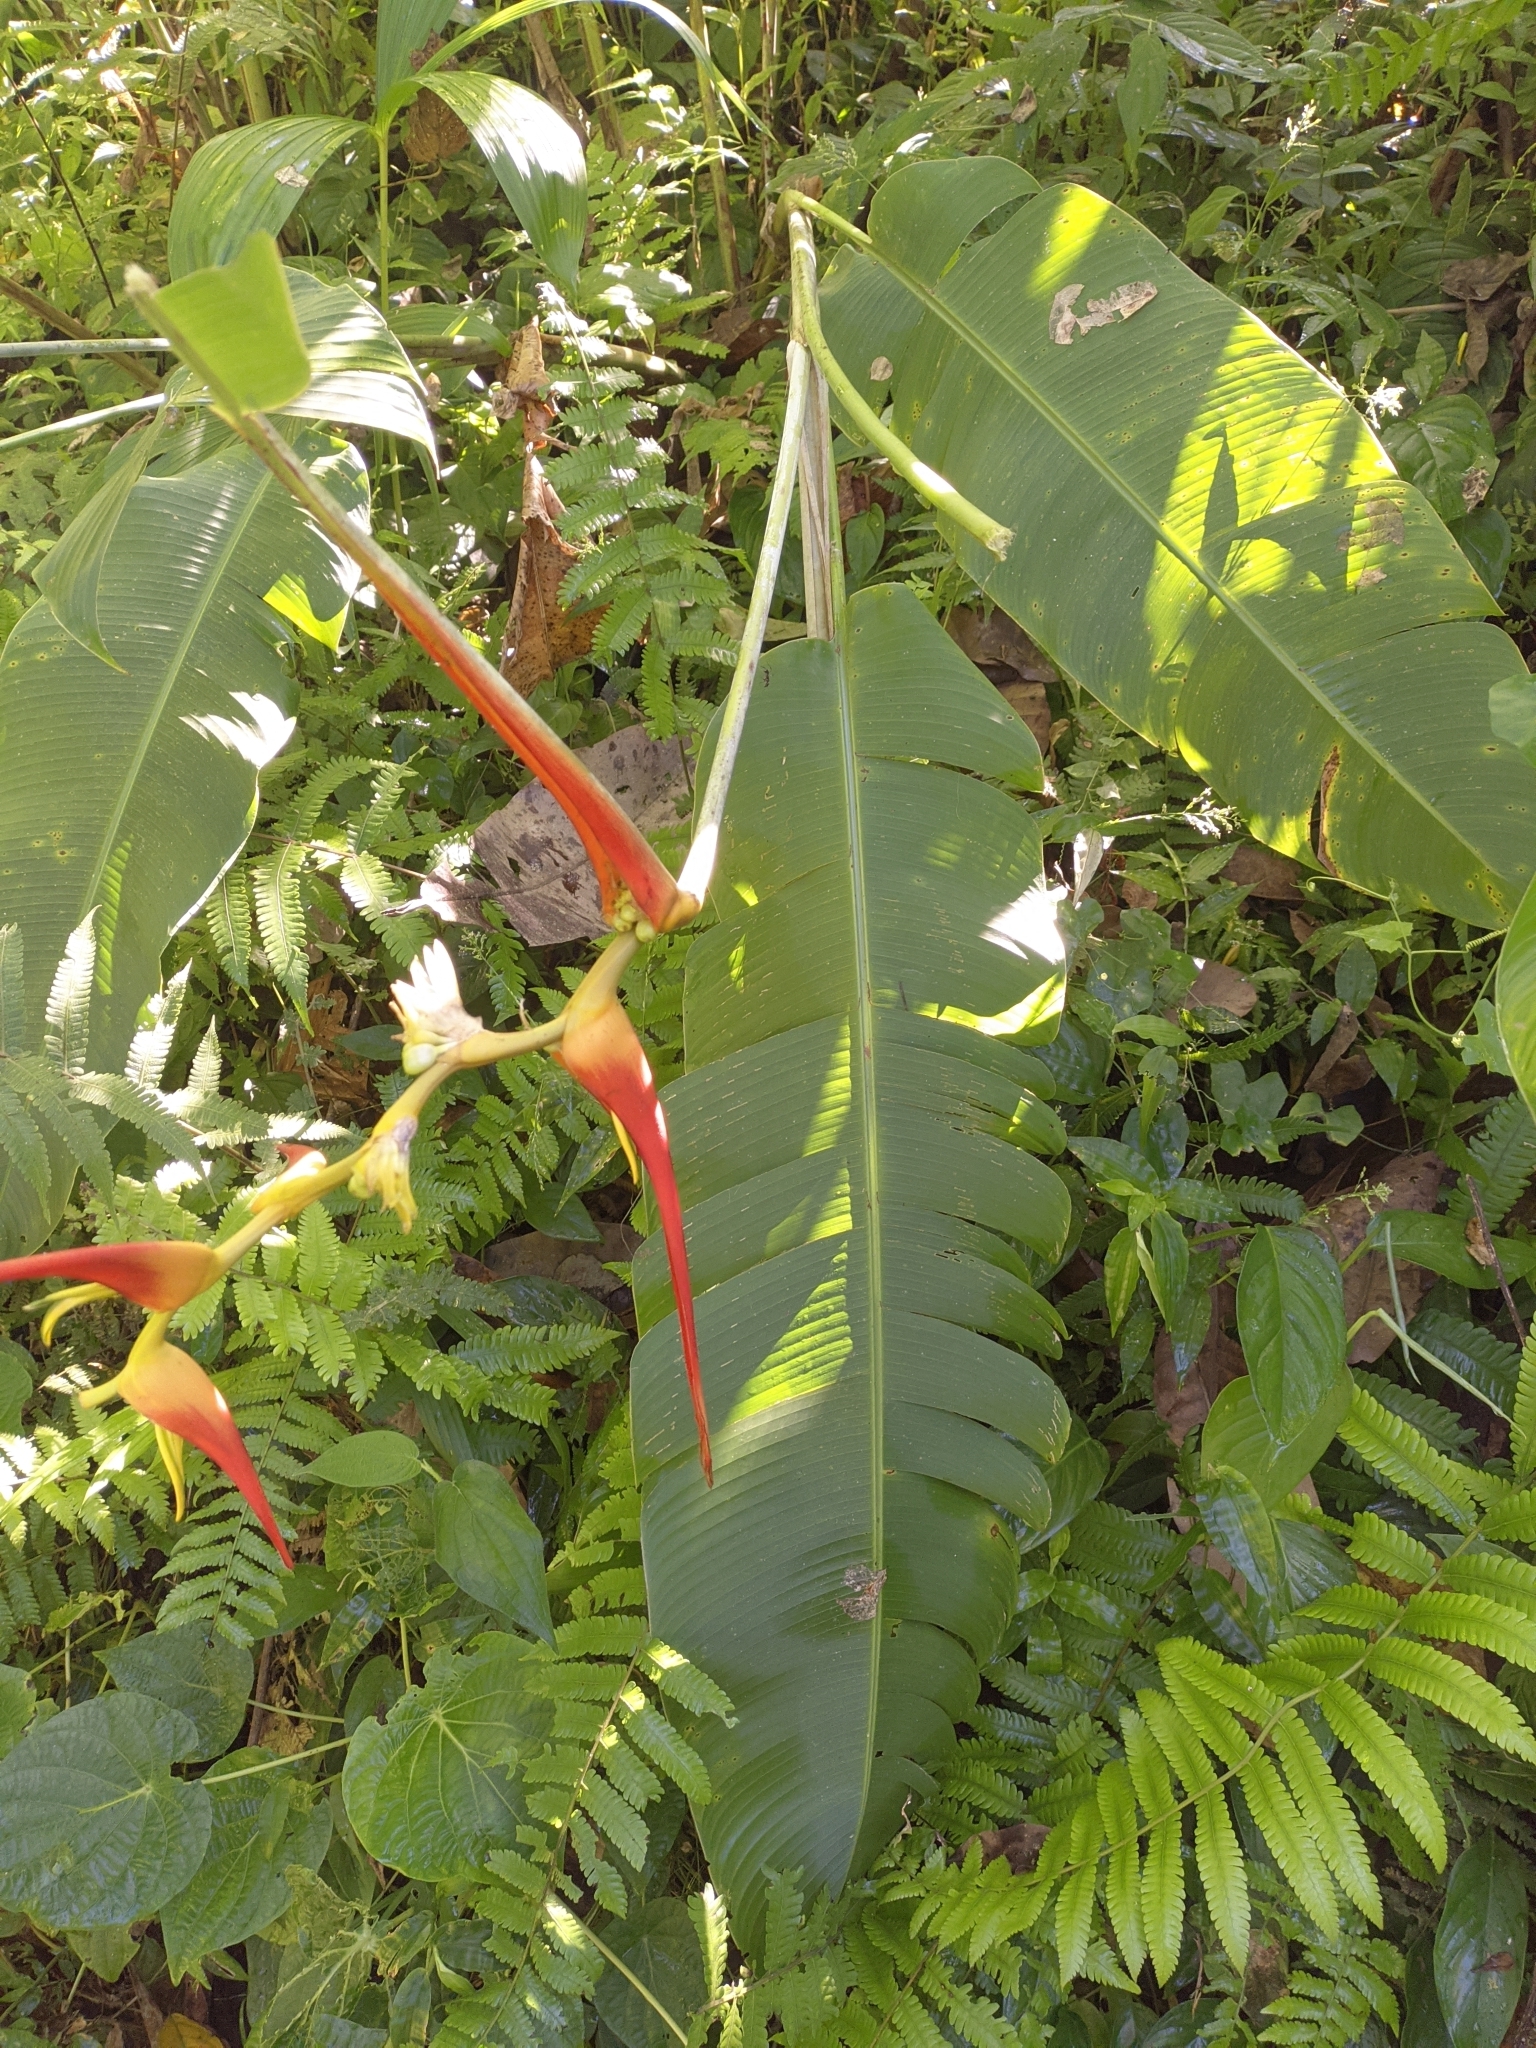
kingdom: Plantae
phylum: Tracheophyta
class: Liliopsida
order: Zingiberales
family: Heliconiaceae
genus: Heliconia
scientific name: Heliconia latispatha
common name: Expanded lobsterclaw
